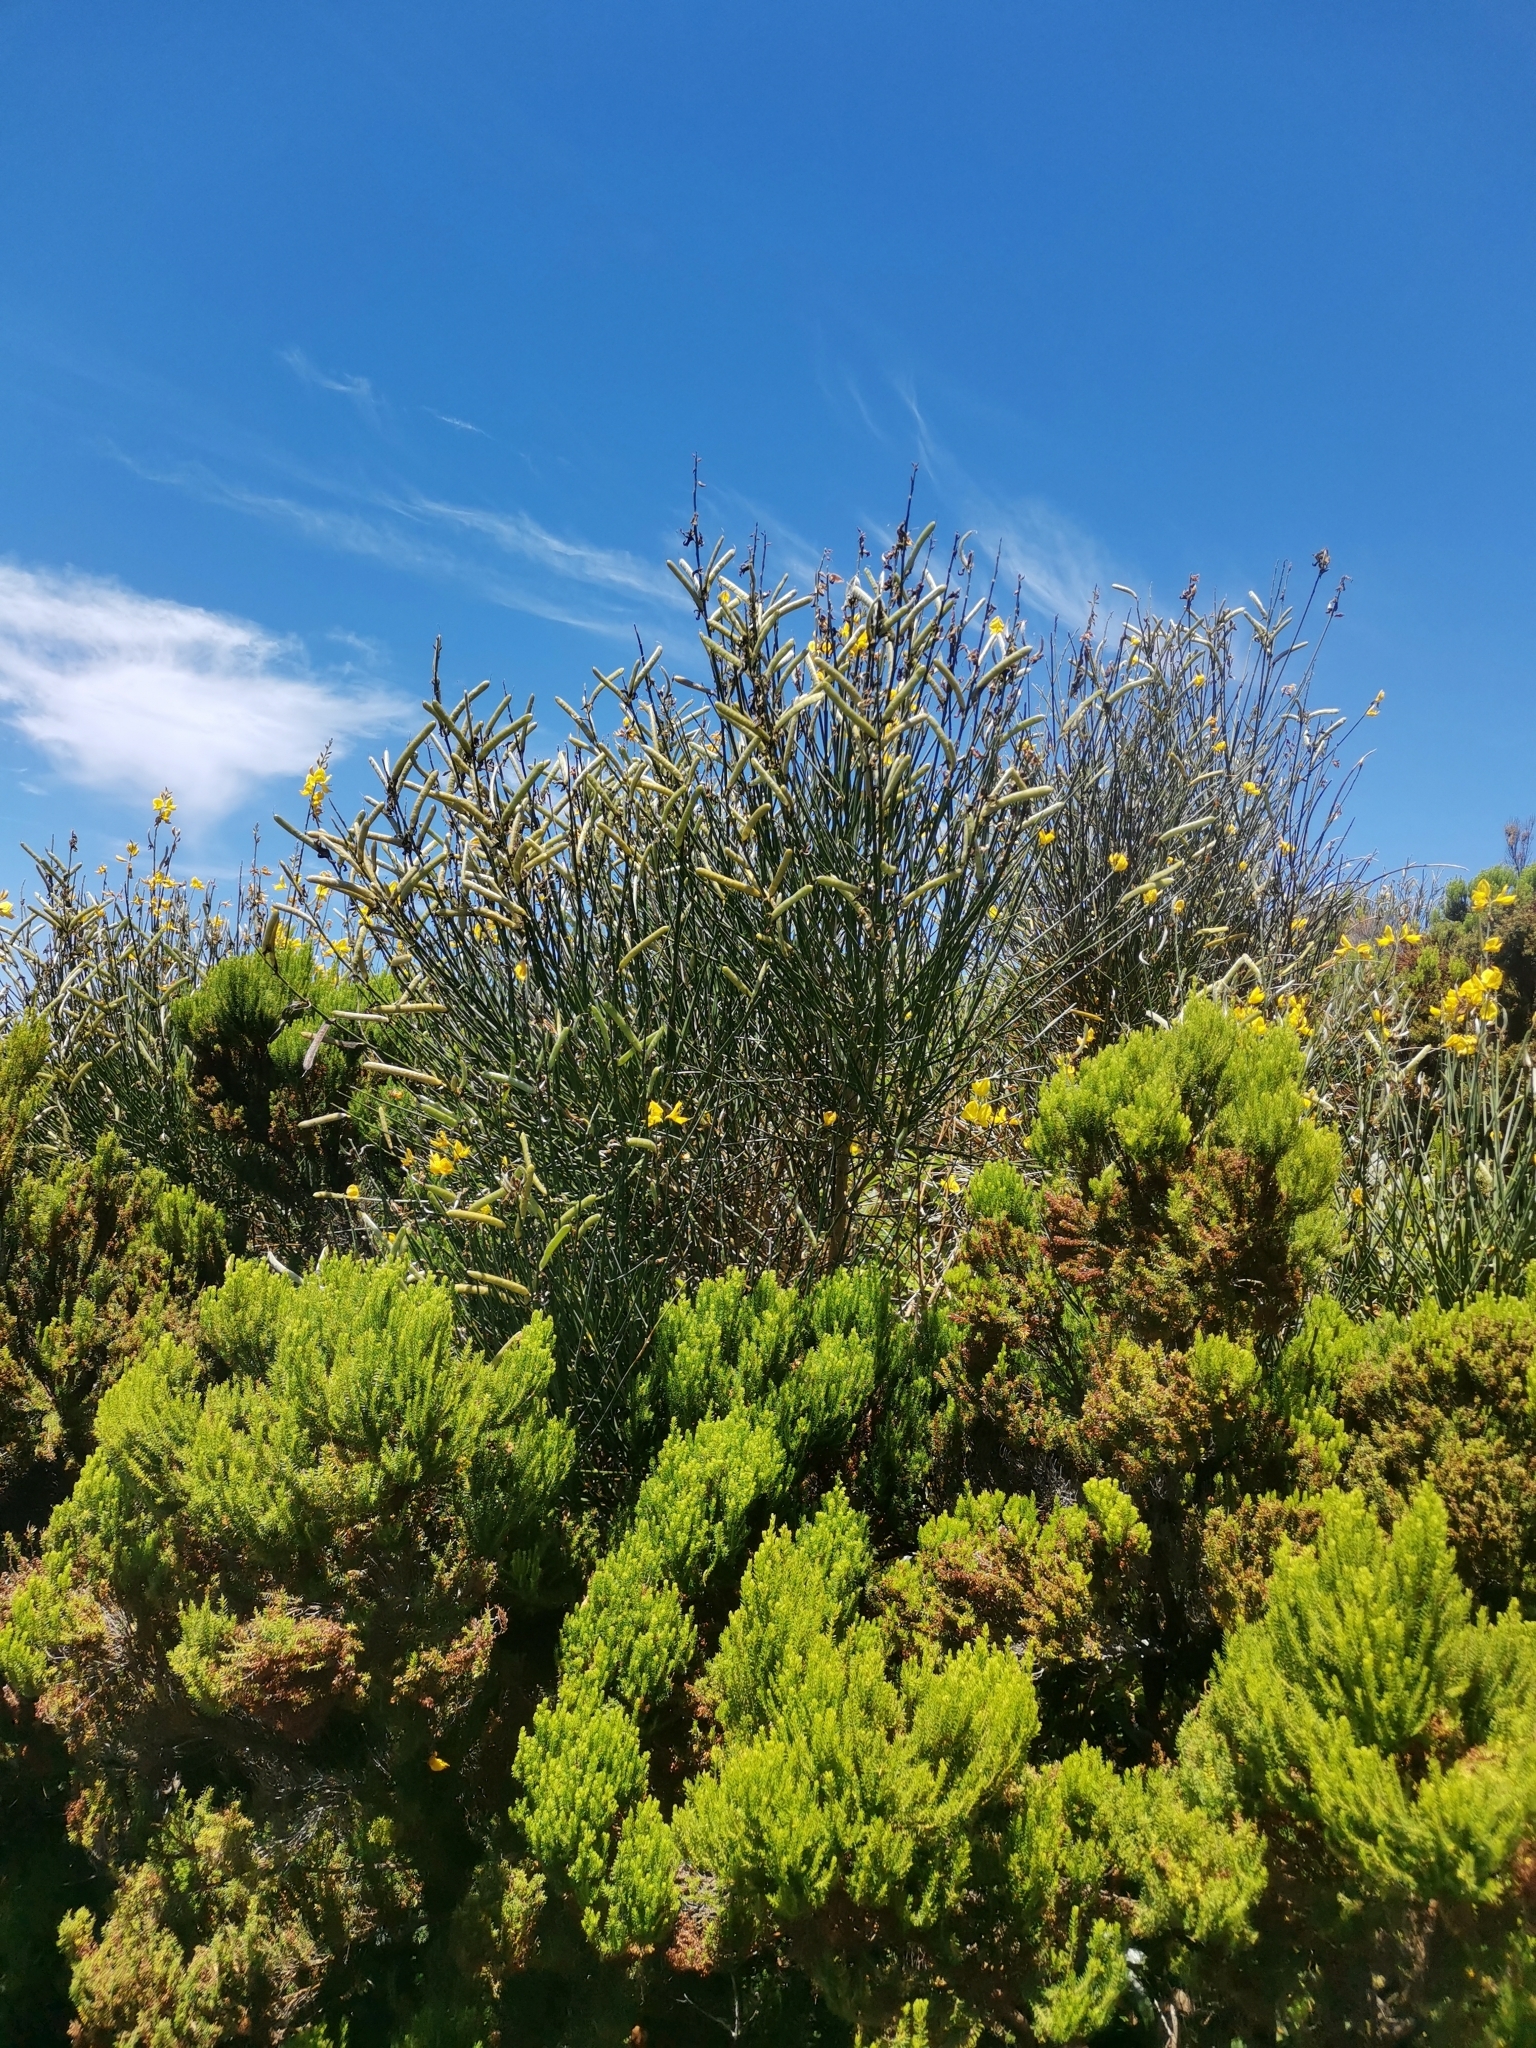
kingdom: Plantae
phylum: Tracheophyta
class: Magnoliopsida
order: Fabales
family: Fabaceae
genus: Spartium
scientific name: Spartium junceum
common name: Spanish broom
